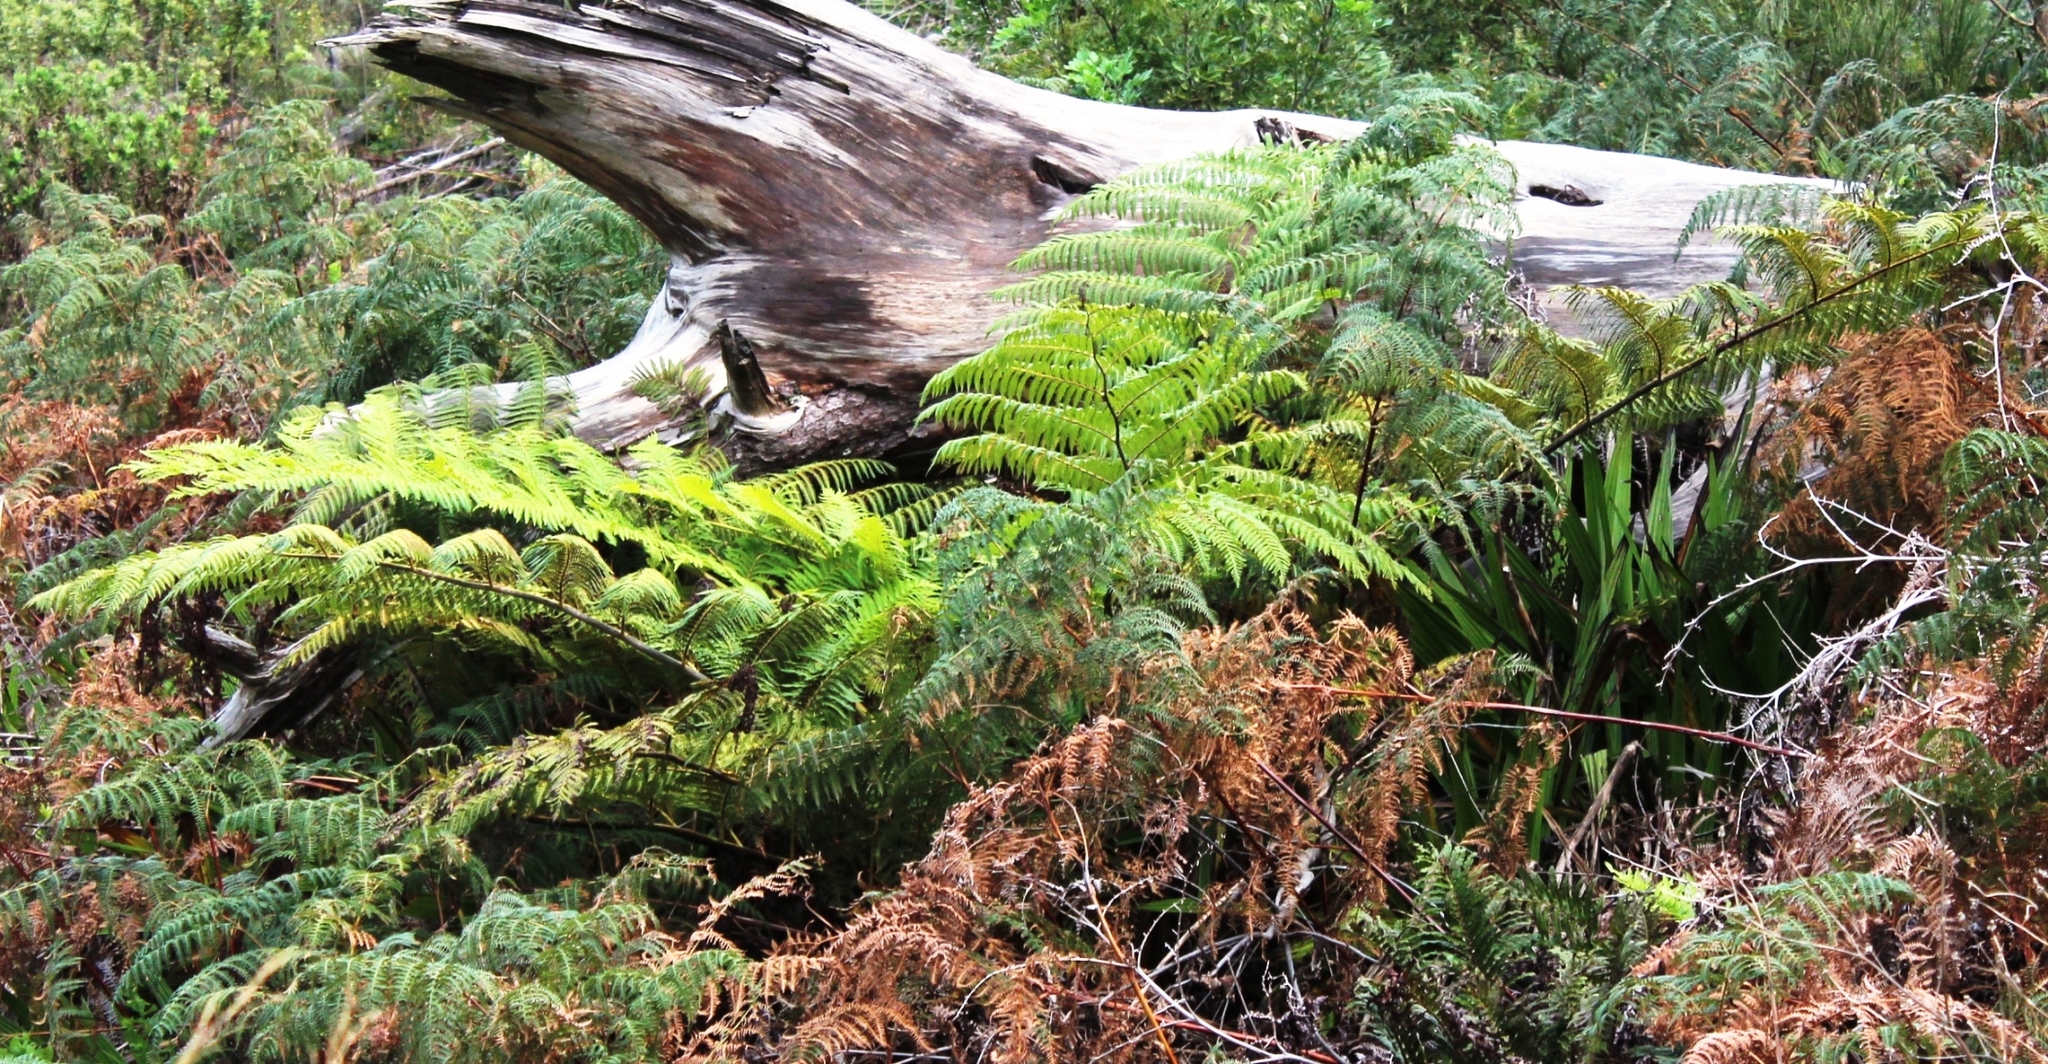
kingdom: Plantae
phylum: Tracheophyta
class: Polypodiopsida
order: Cyatheales
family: Cyatheaceae
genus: Sphaeropteris
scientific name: Sphaeropteris cooperi
